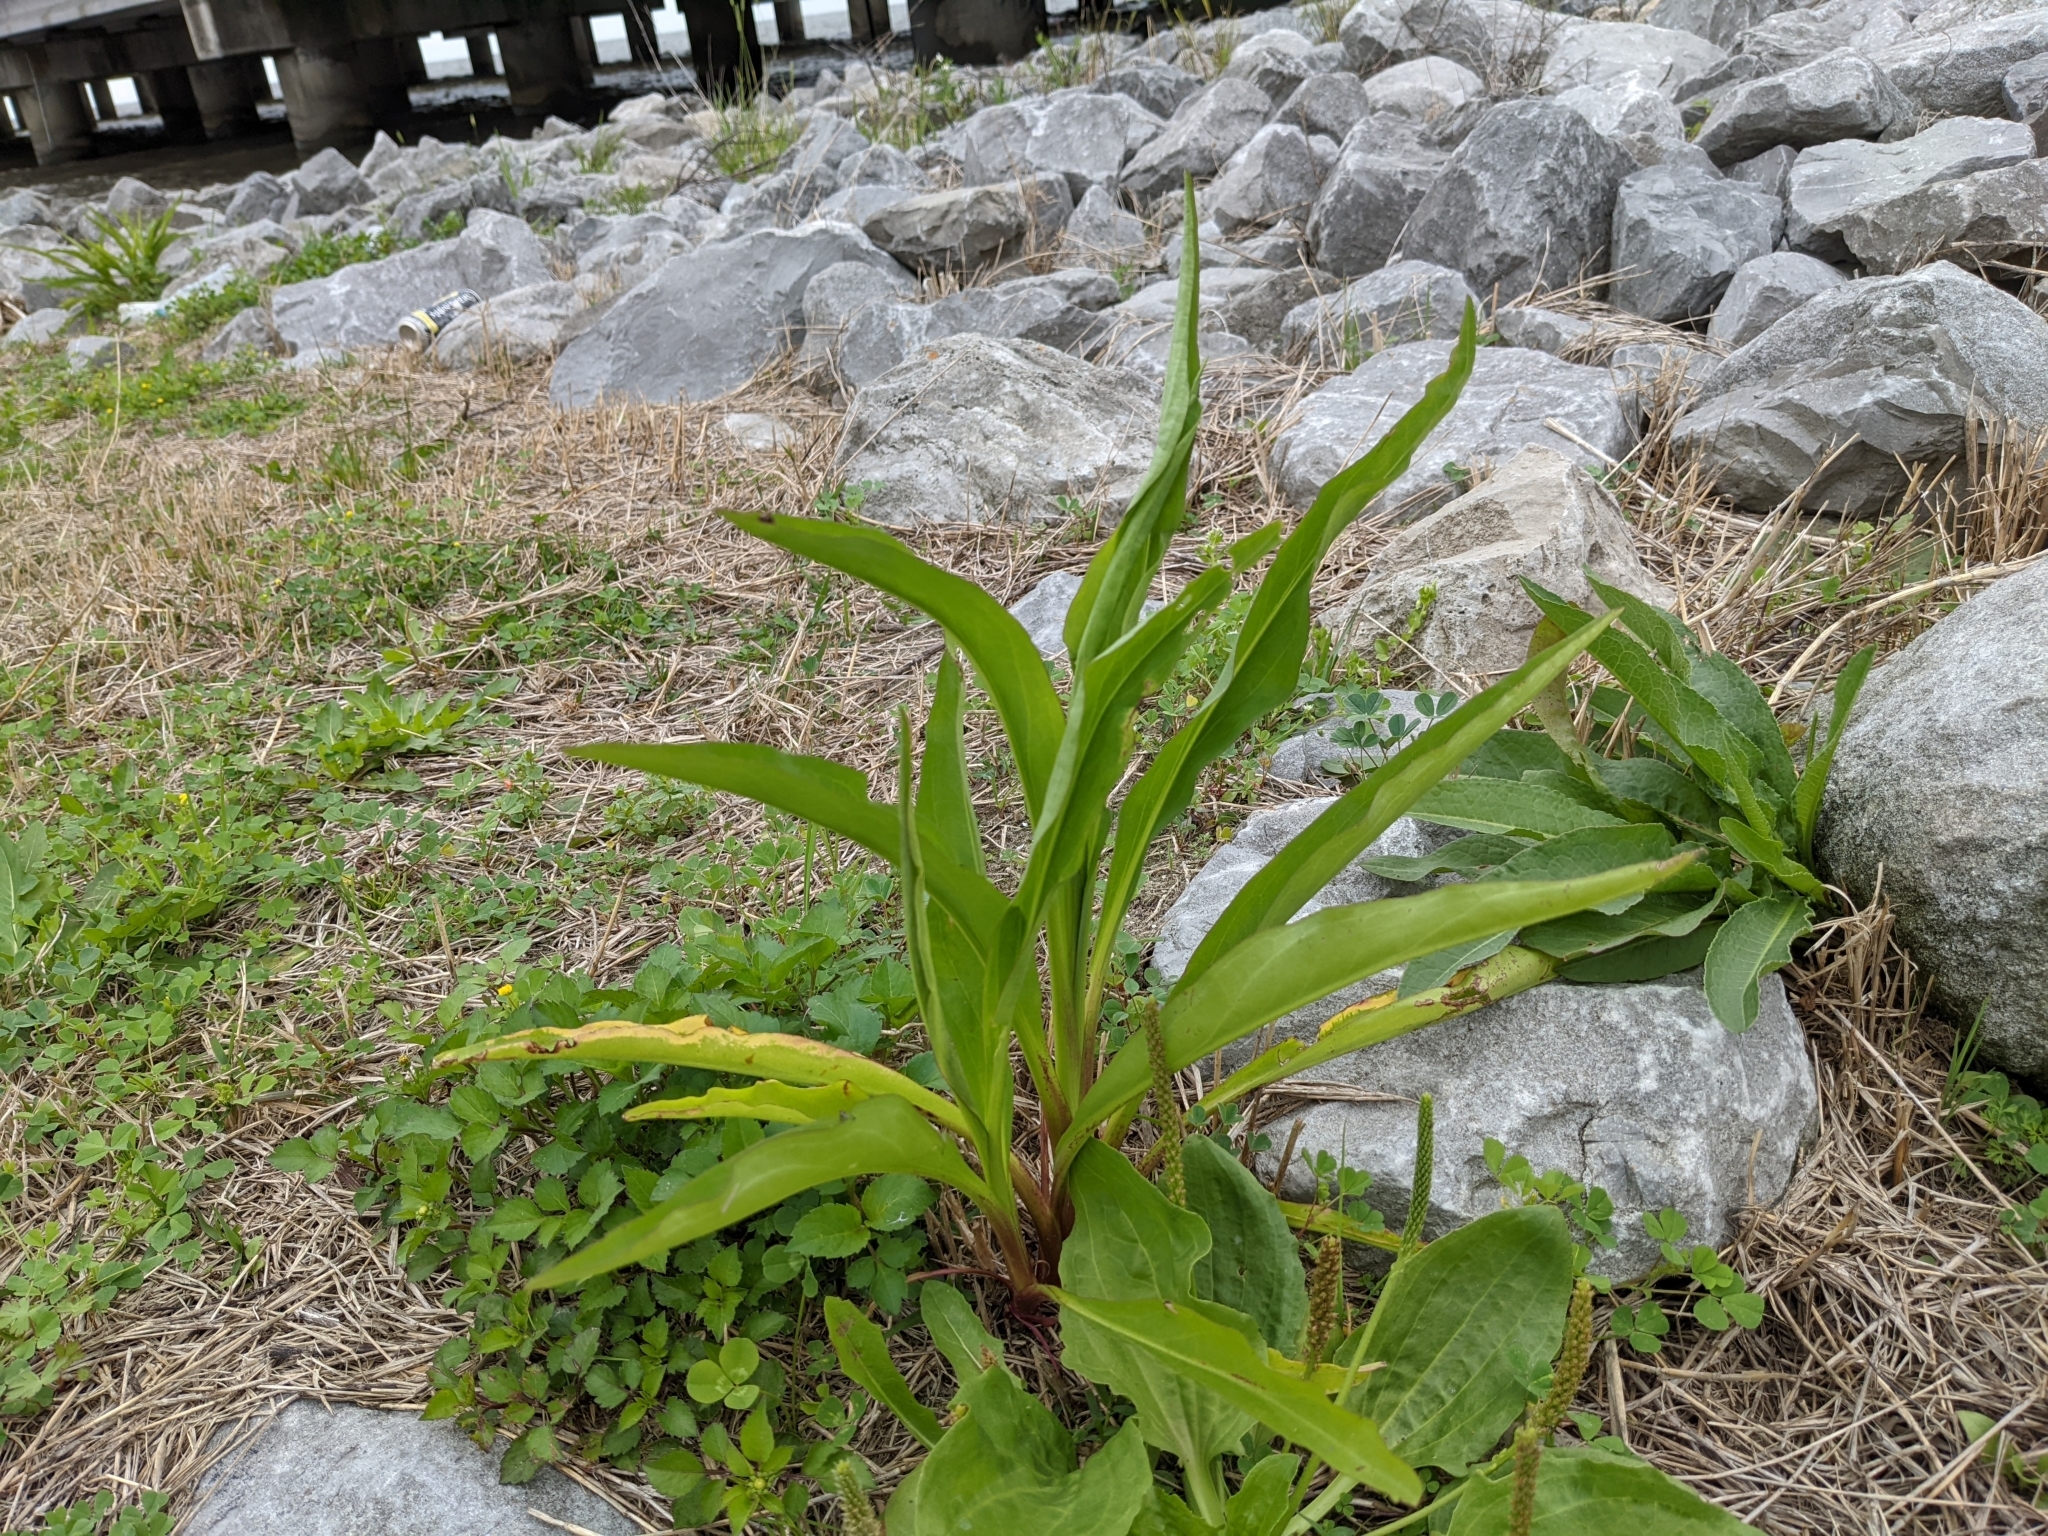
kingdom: Plantae
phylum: Tracheophyta
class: Magnoliopsida
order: Asterales
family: Asteraceae
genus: Solidago
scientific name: Solidago mexicana
